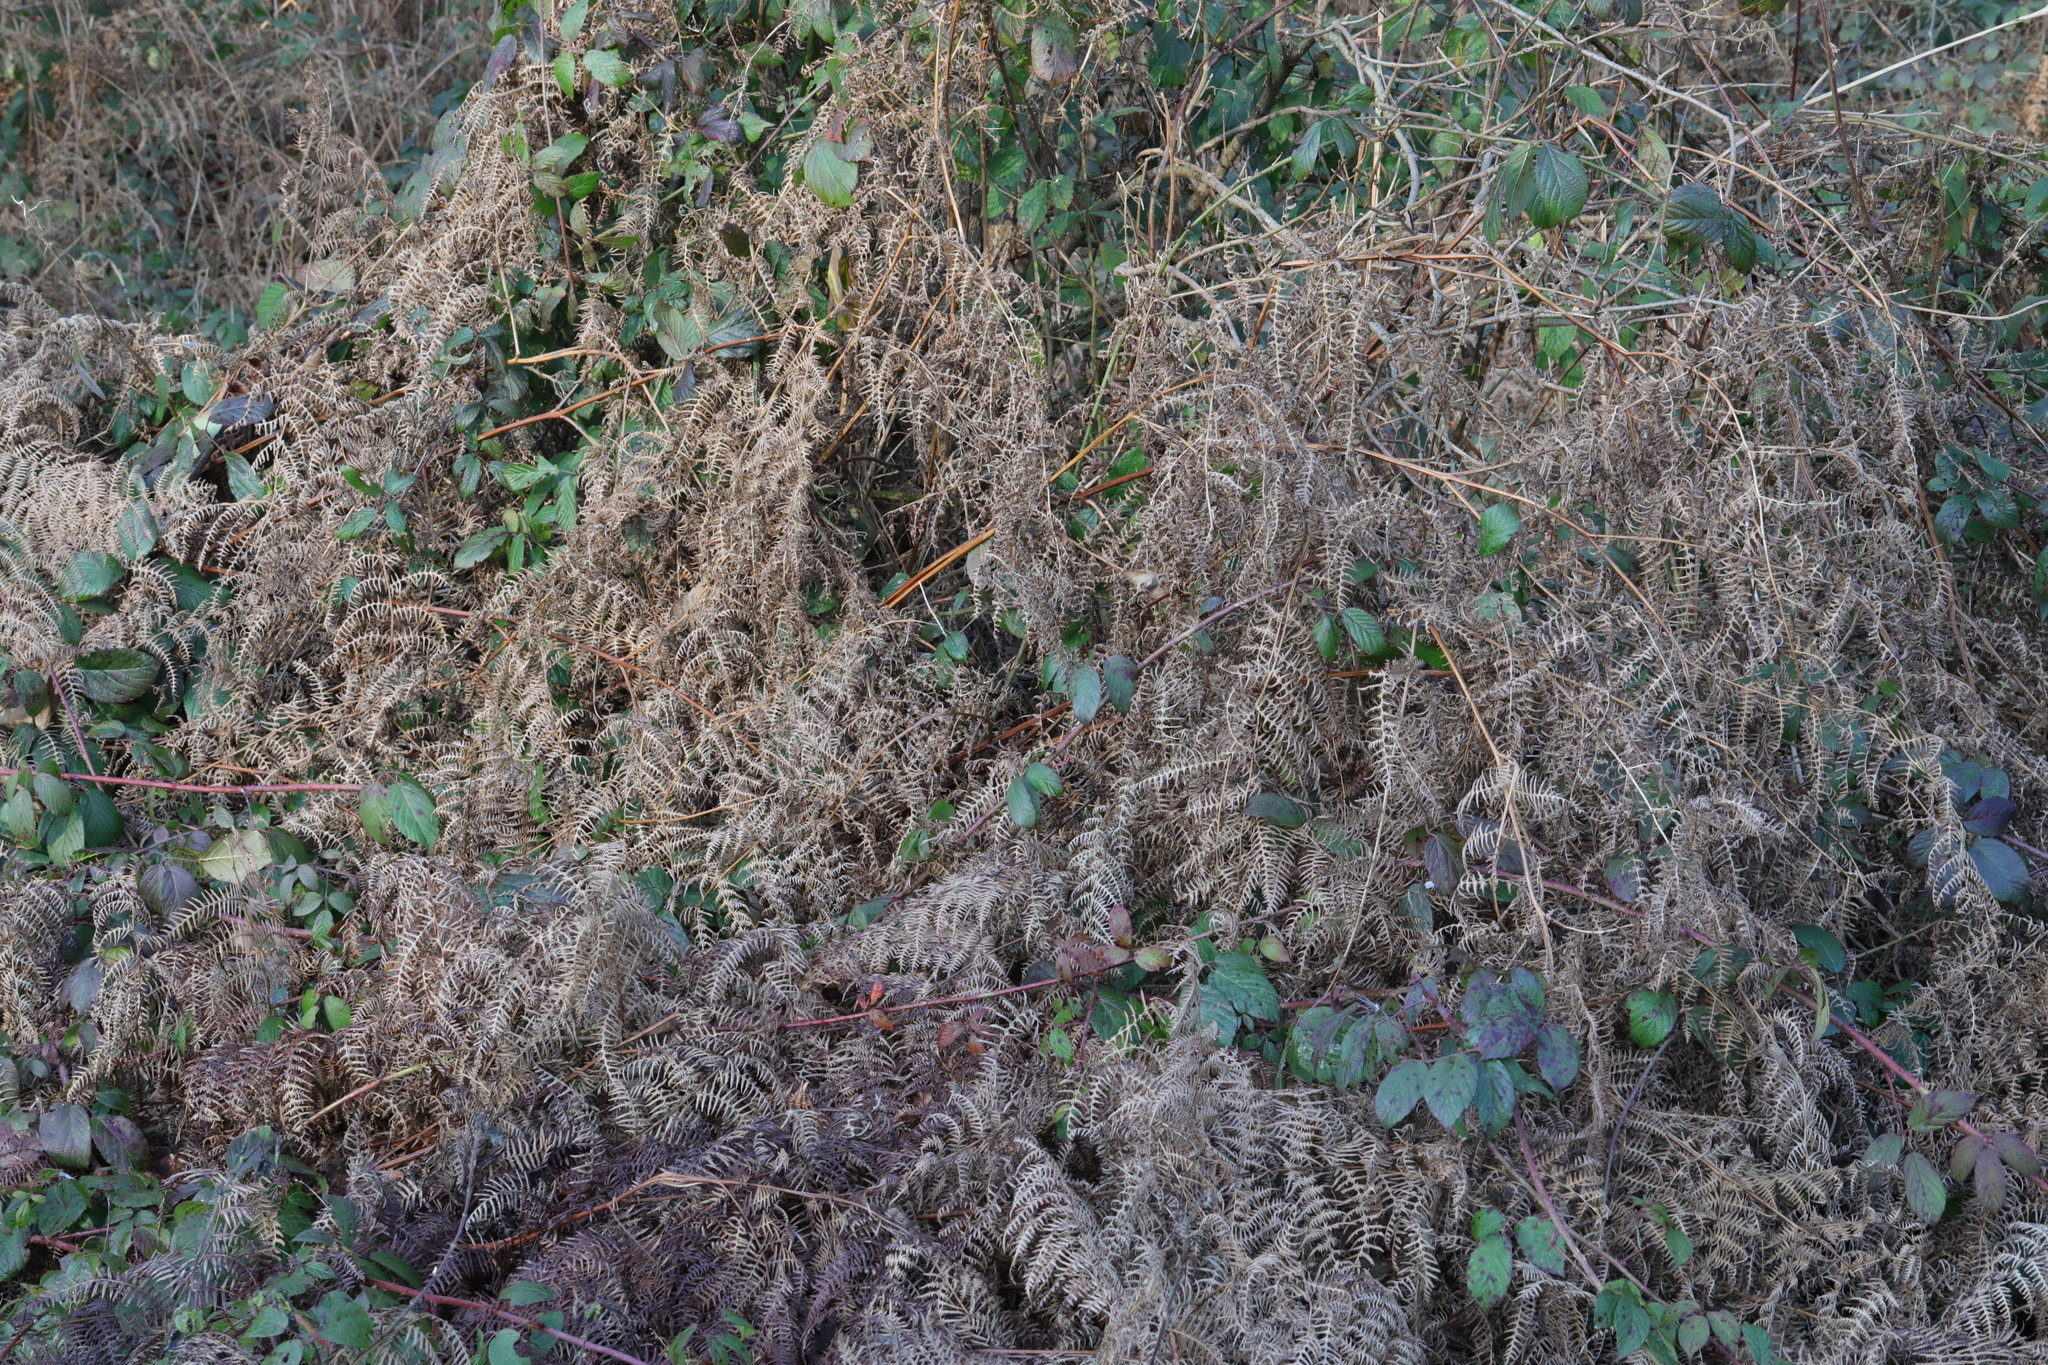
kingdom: Plantae
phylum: Tracheophyta
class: Polypodiopsida
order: Polypodiales
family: Dennstaedtiaceae
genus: Pteridium
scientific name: Pteridium aquilinum
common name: Bracken
